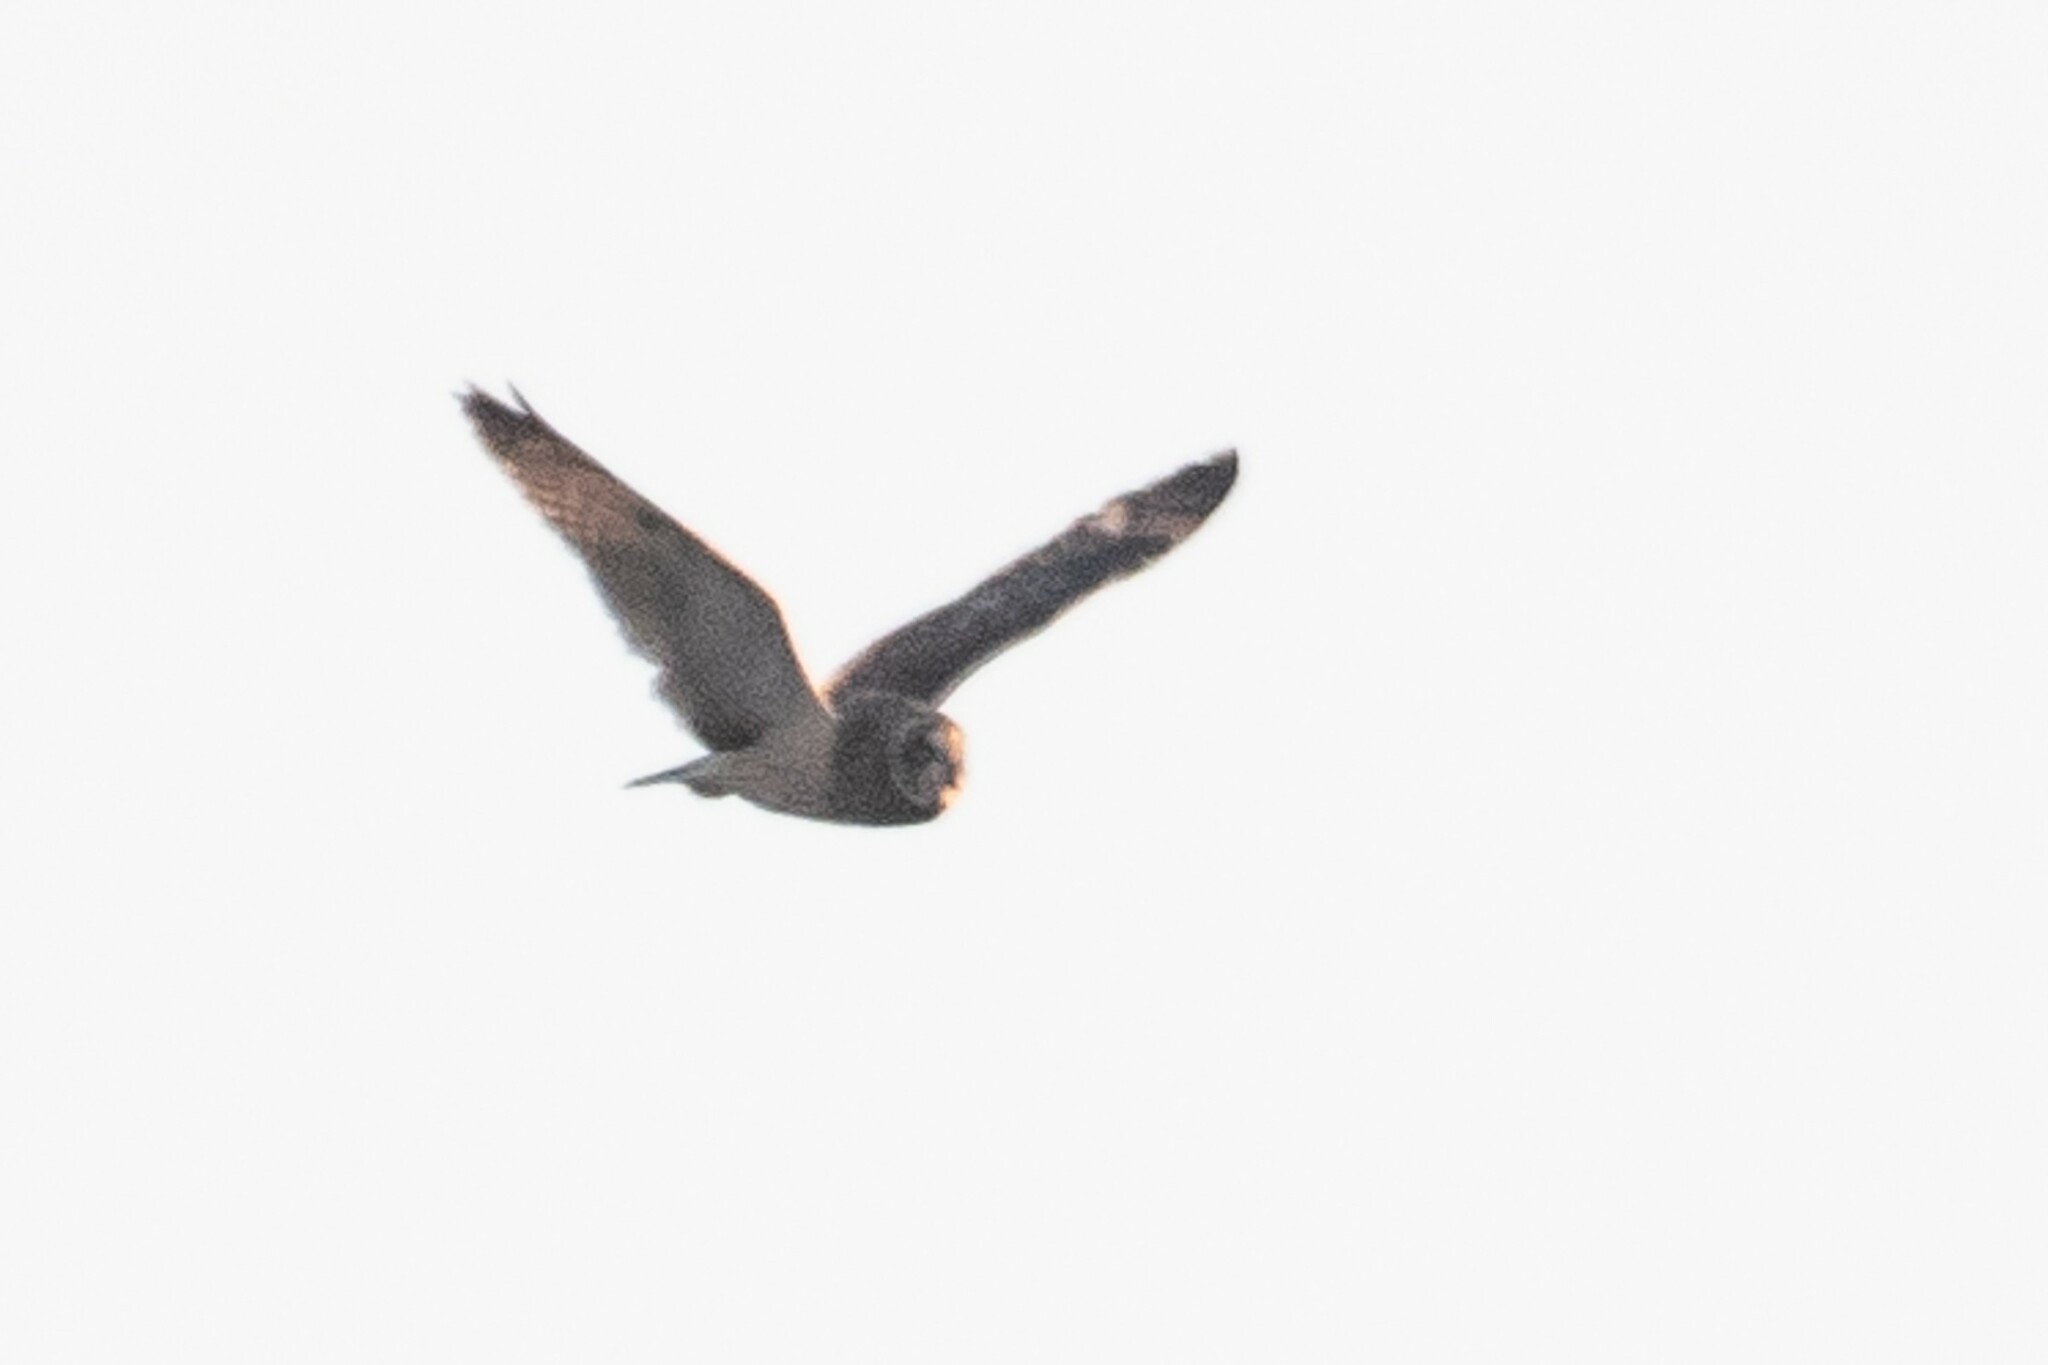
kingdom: Animalia
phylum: Chordata
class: Aves
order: Strigiformes
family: Strigidae
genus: Asio
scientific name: Asio flammeus
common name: Short-eared owl
